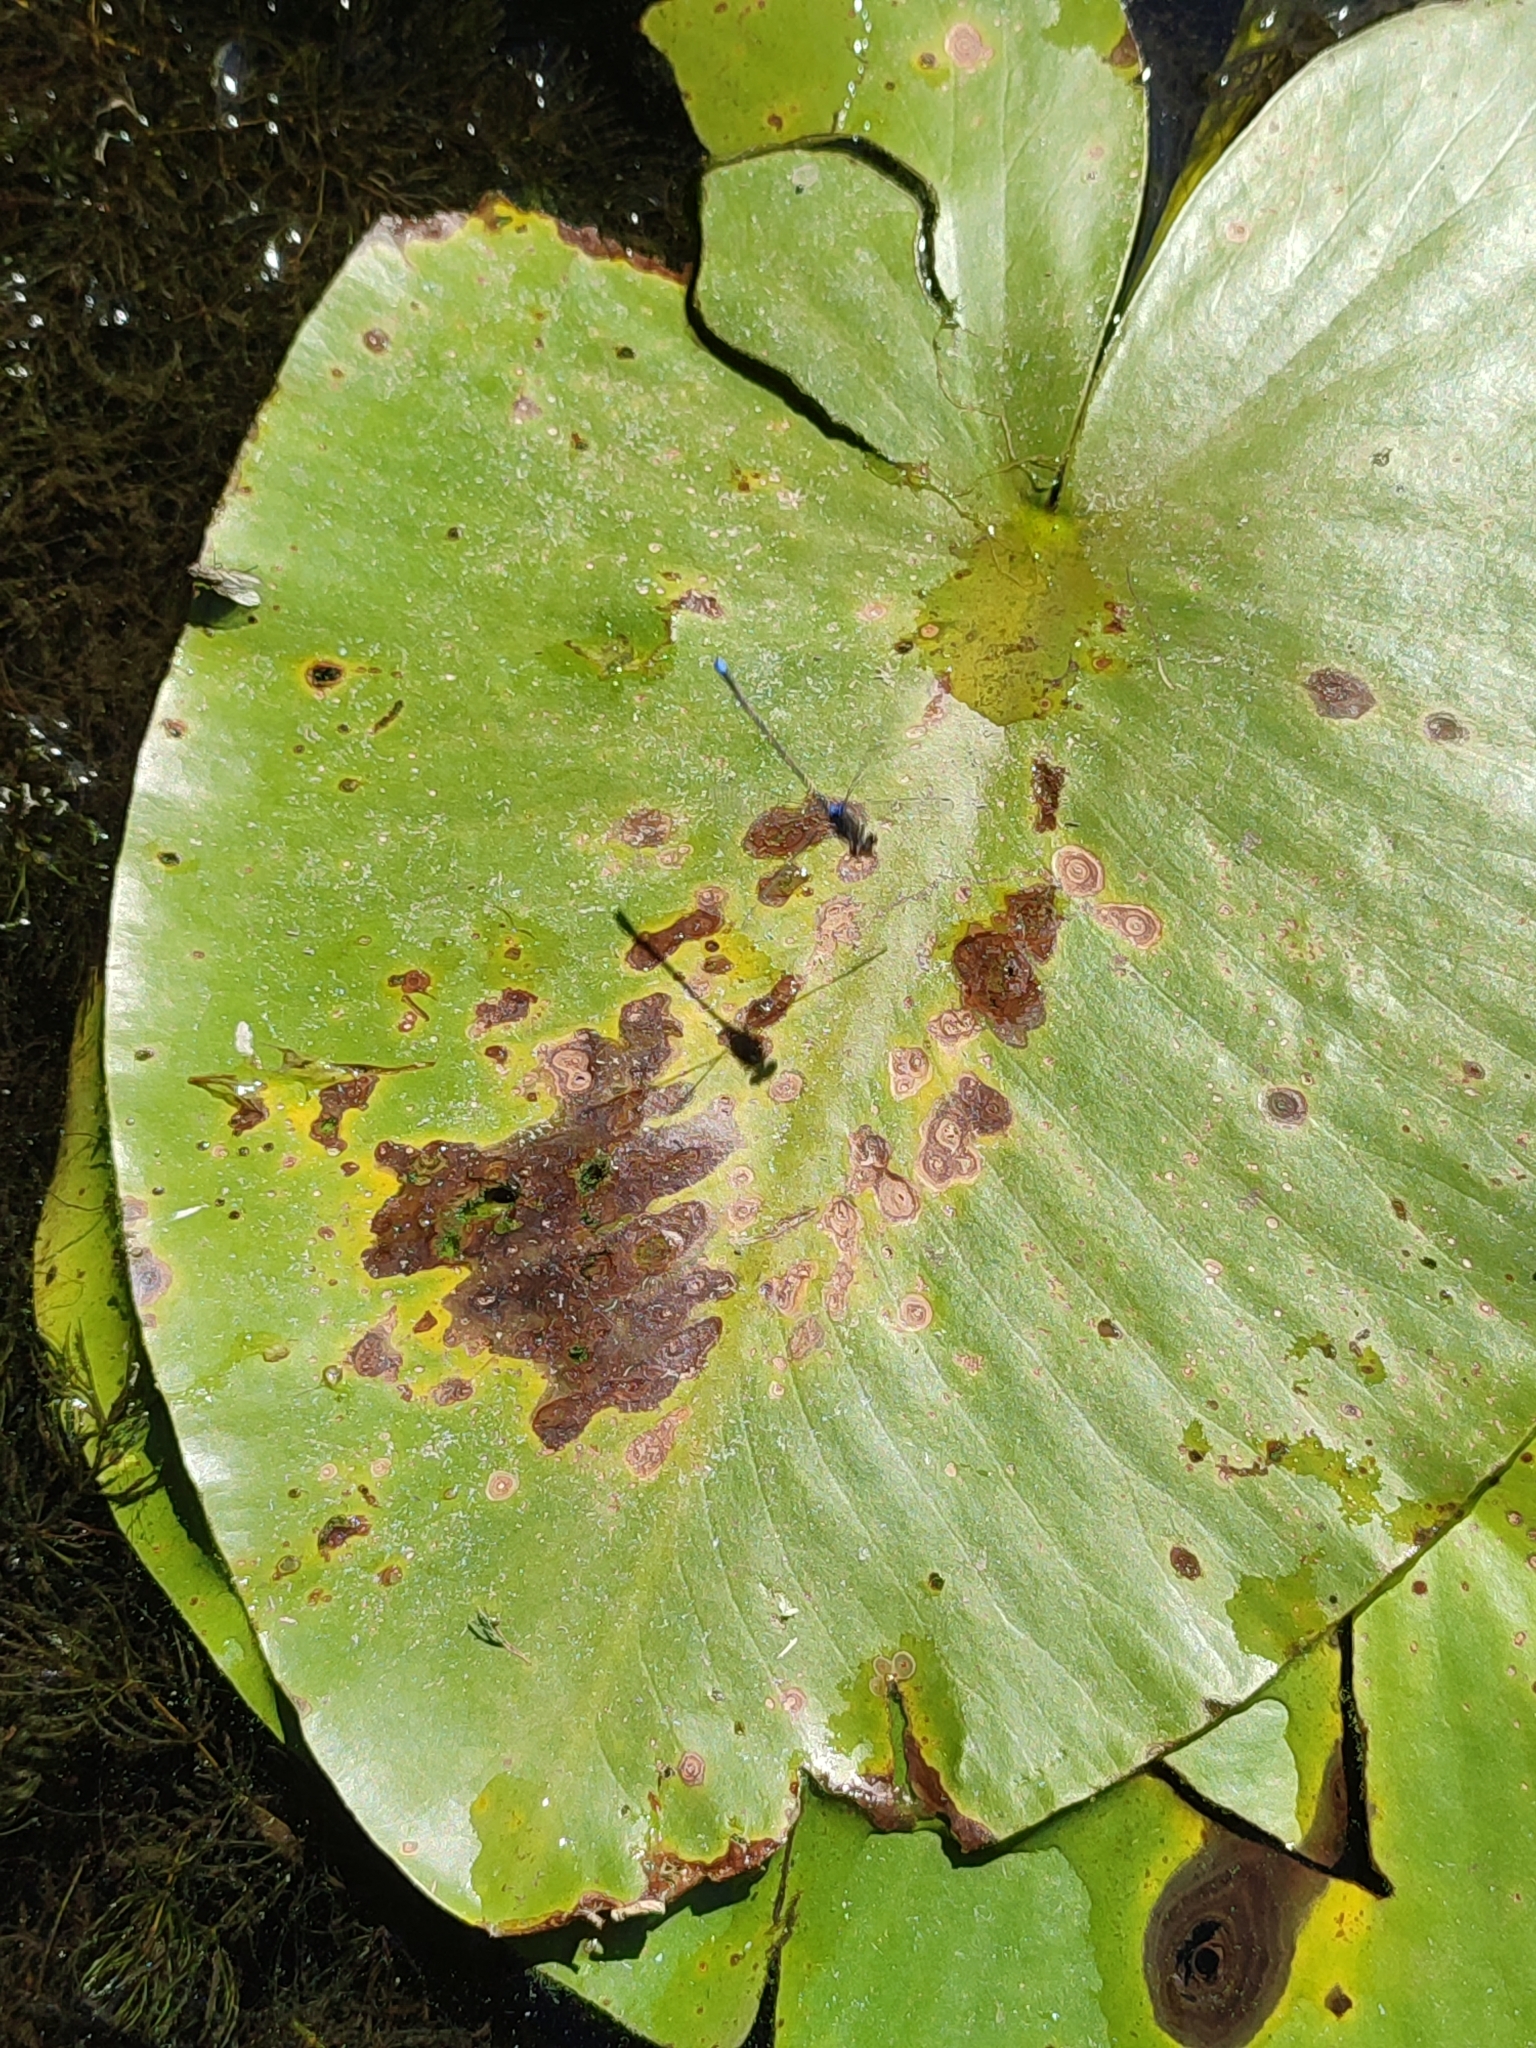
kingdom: Plantae
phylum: Tracheophyta
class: Magnoliopsida
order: Nymphaeales
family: Nymphaeaceae
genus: Nuphar
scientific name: Nuphar lutea
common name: Yellow water-lily
